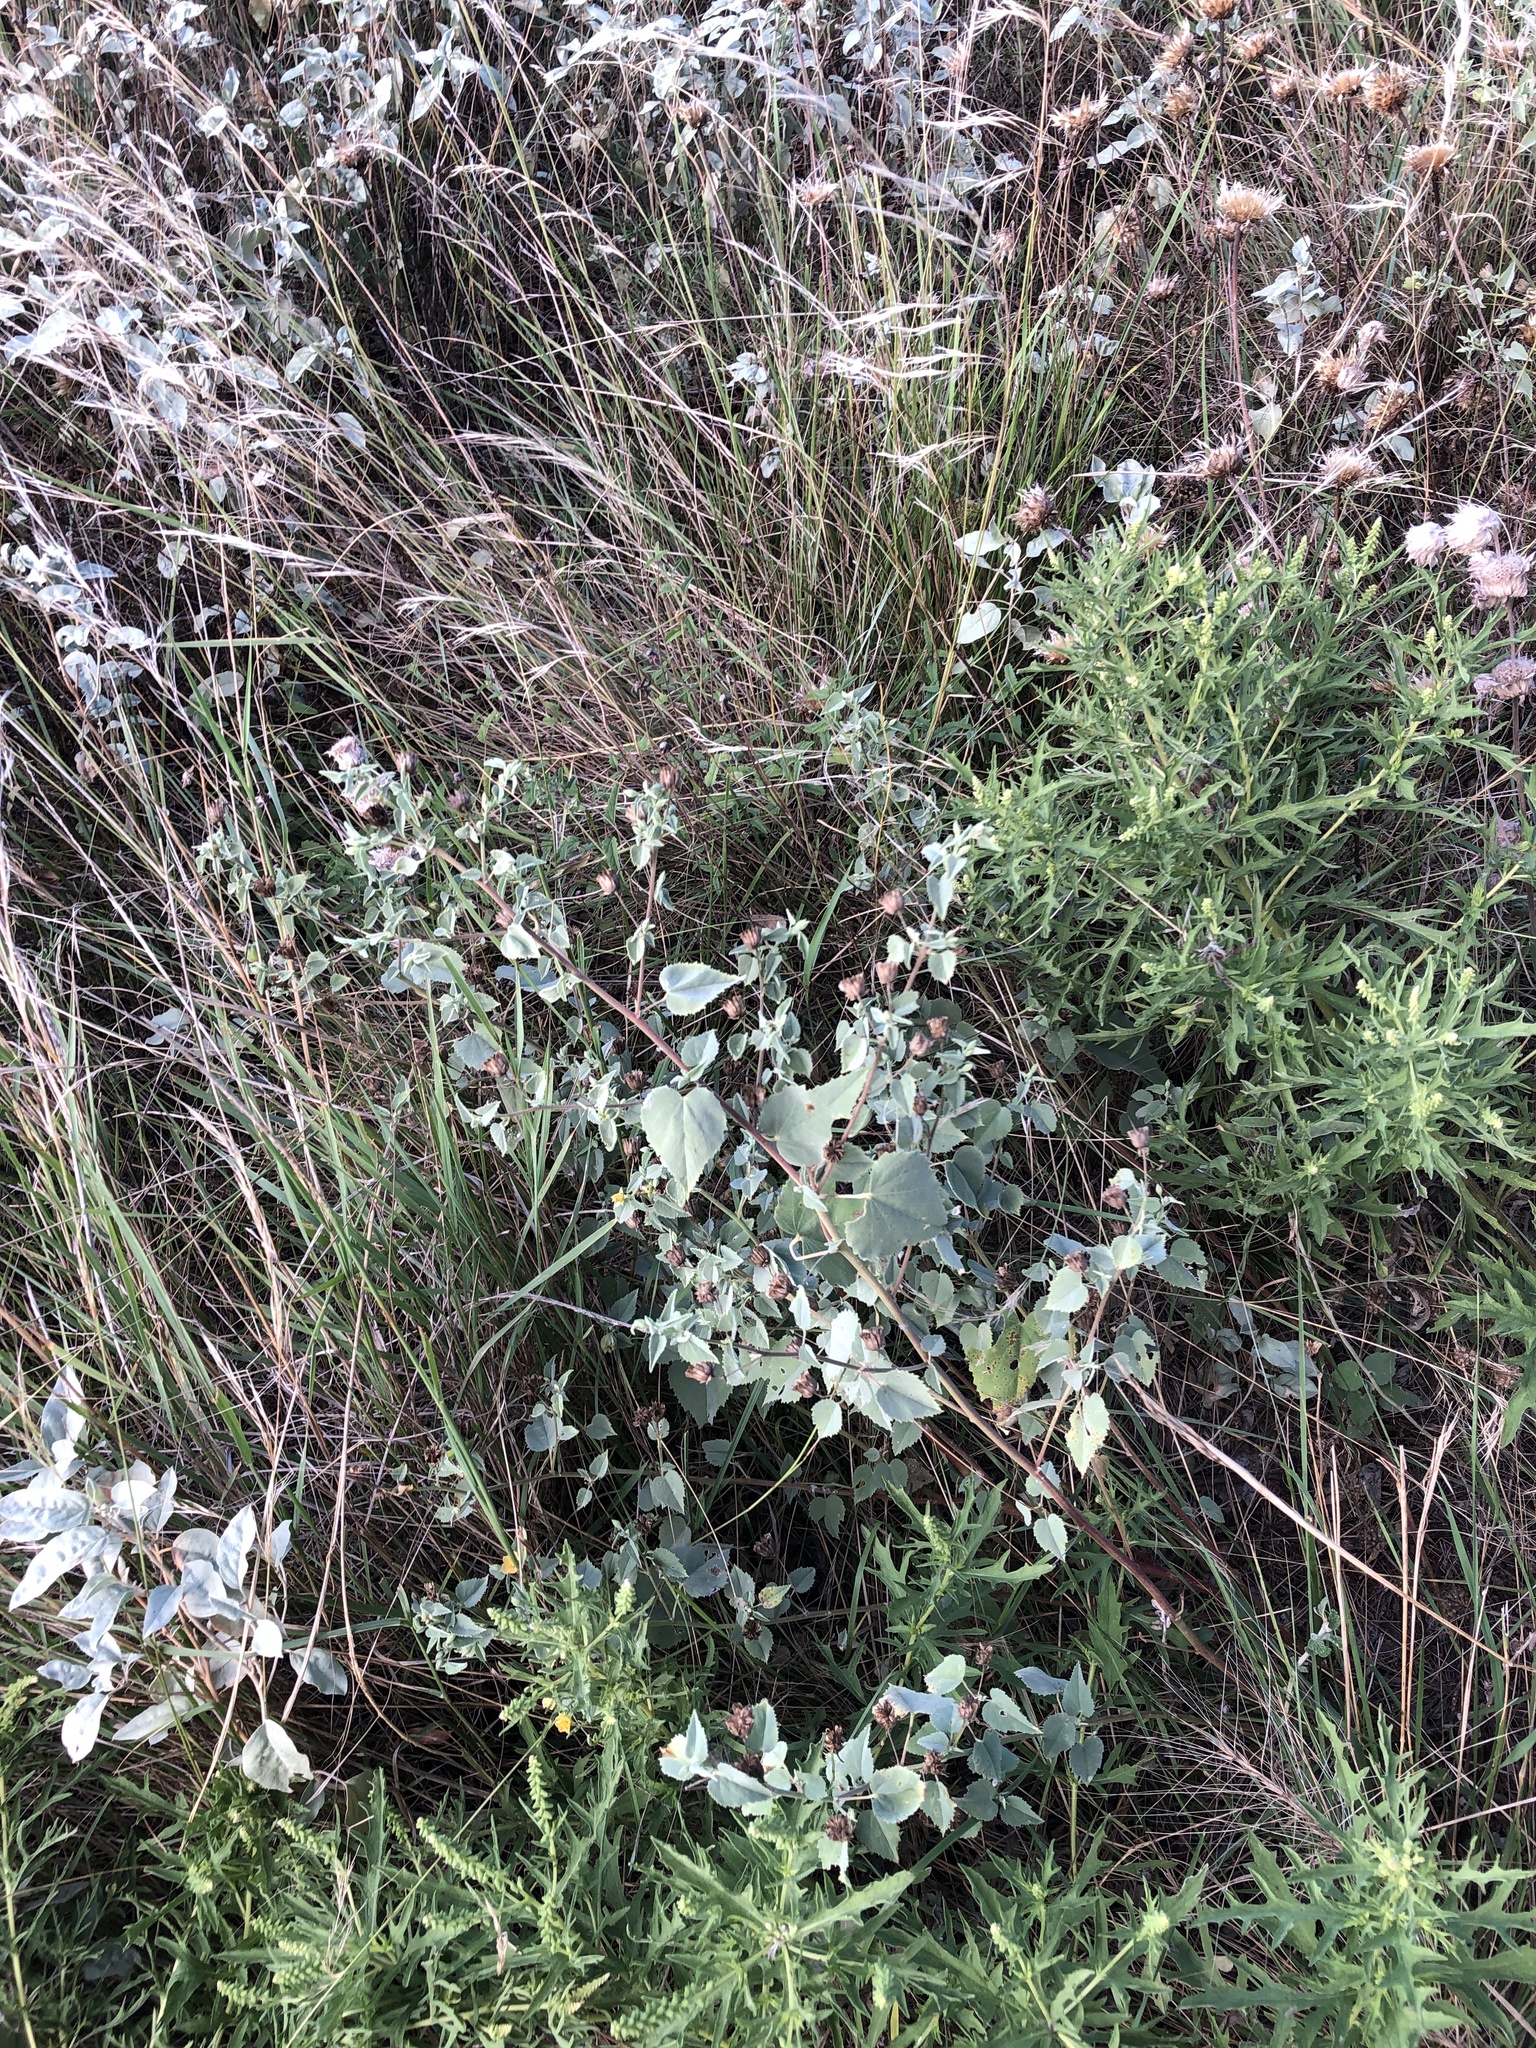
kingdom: Plantae
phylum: Tracheophyta
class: Magnoliopsida
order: Malvales
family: Malvaceae
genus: Abutilon
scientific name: Abutilon fruticosum
